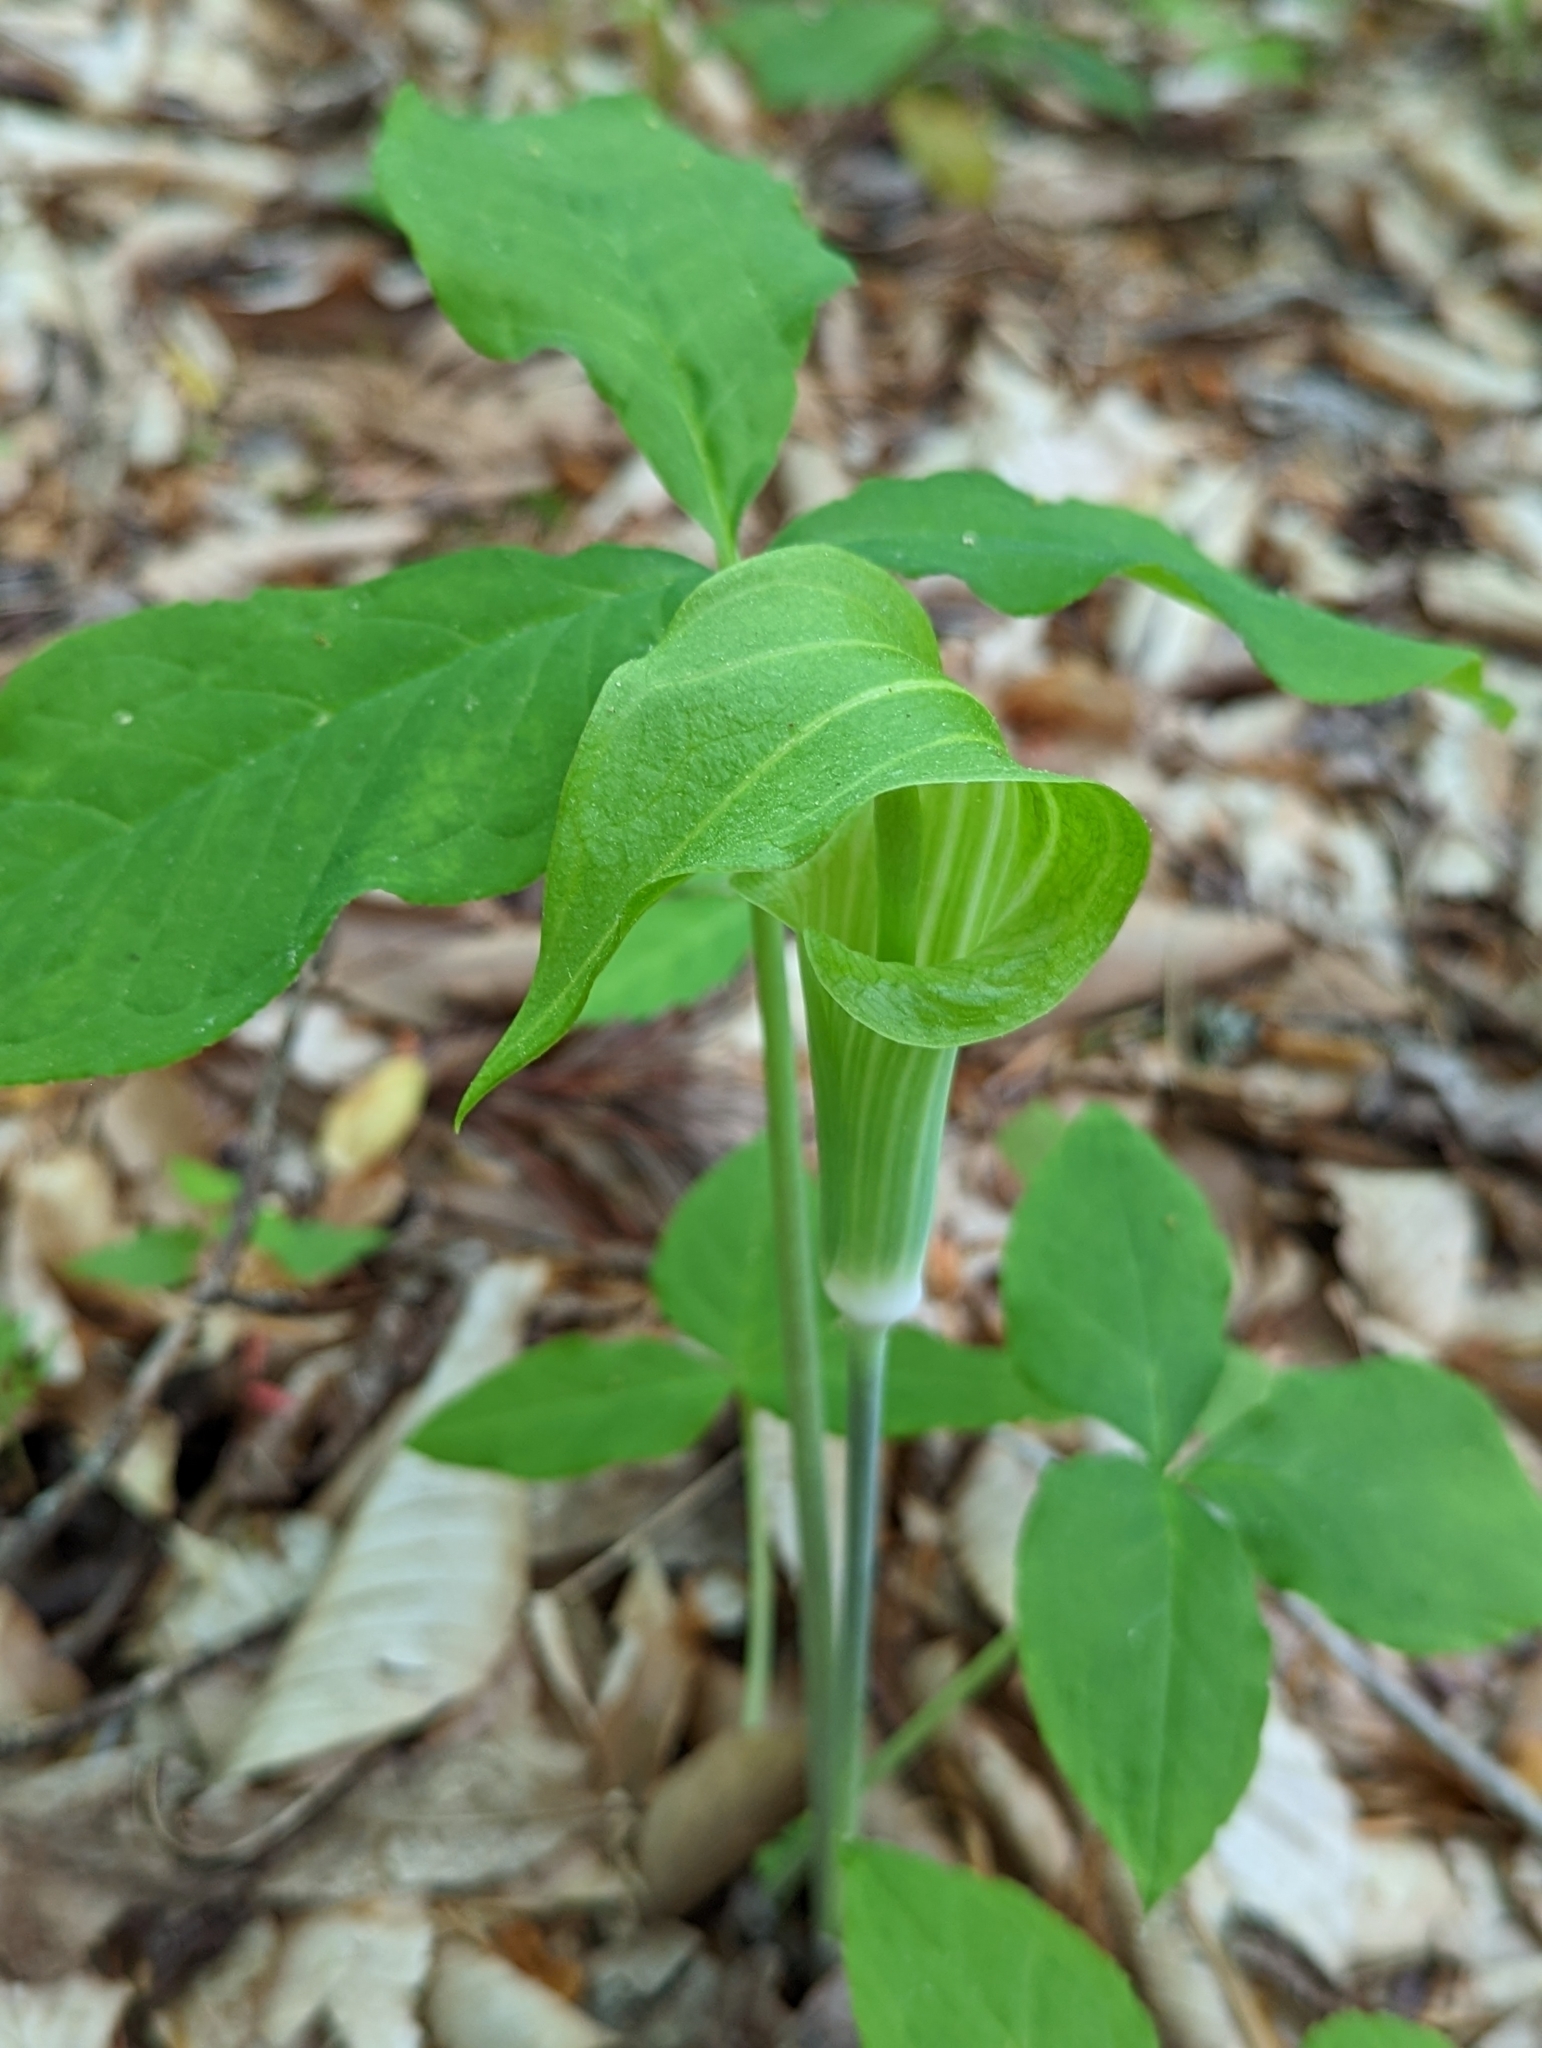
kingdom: Plantae
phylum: Tracheophyta
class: Liliopsida
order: Alismatales
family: Araceae
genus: Arisaema
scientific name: Arisaema triphyllum
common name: Jack-in-the-pulpit
